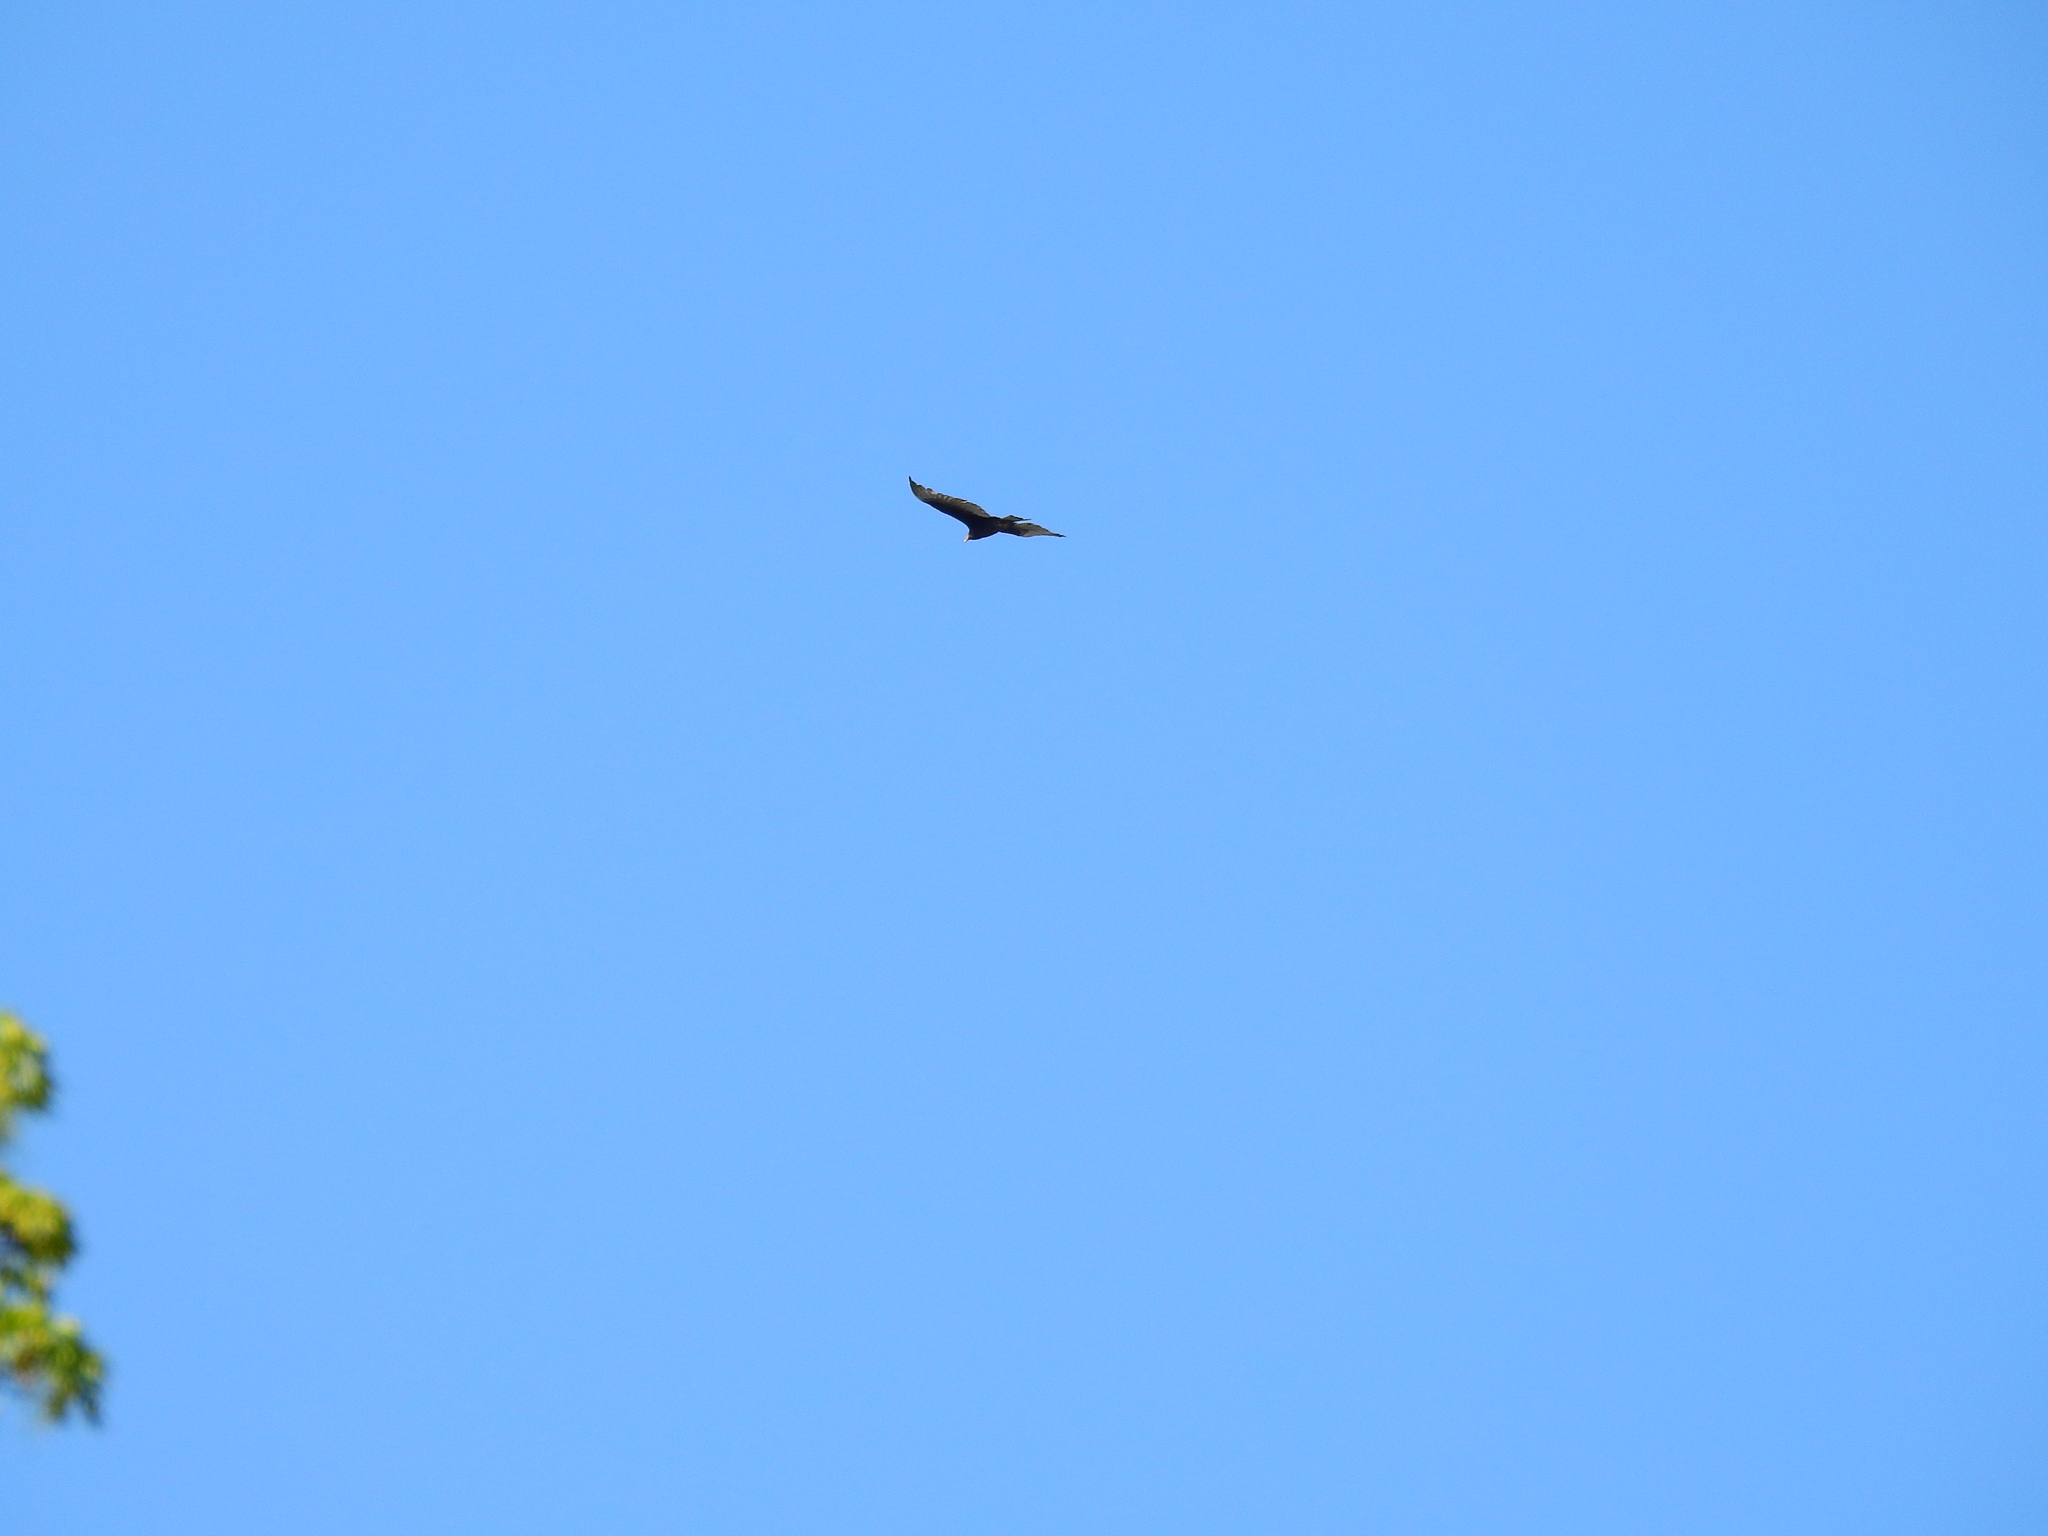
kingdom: Animalia
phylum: Chordata
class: Aves
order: Accipitriformes
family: Cathartidae
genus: Cathartes
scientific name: Cathartes aura
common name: Turkey vulture
